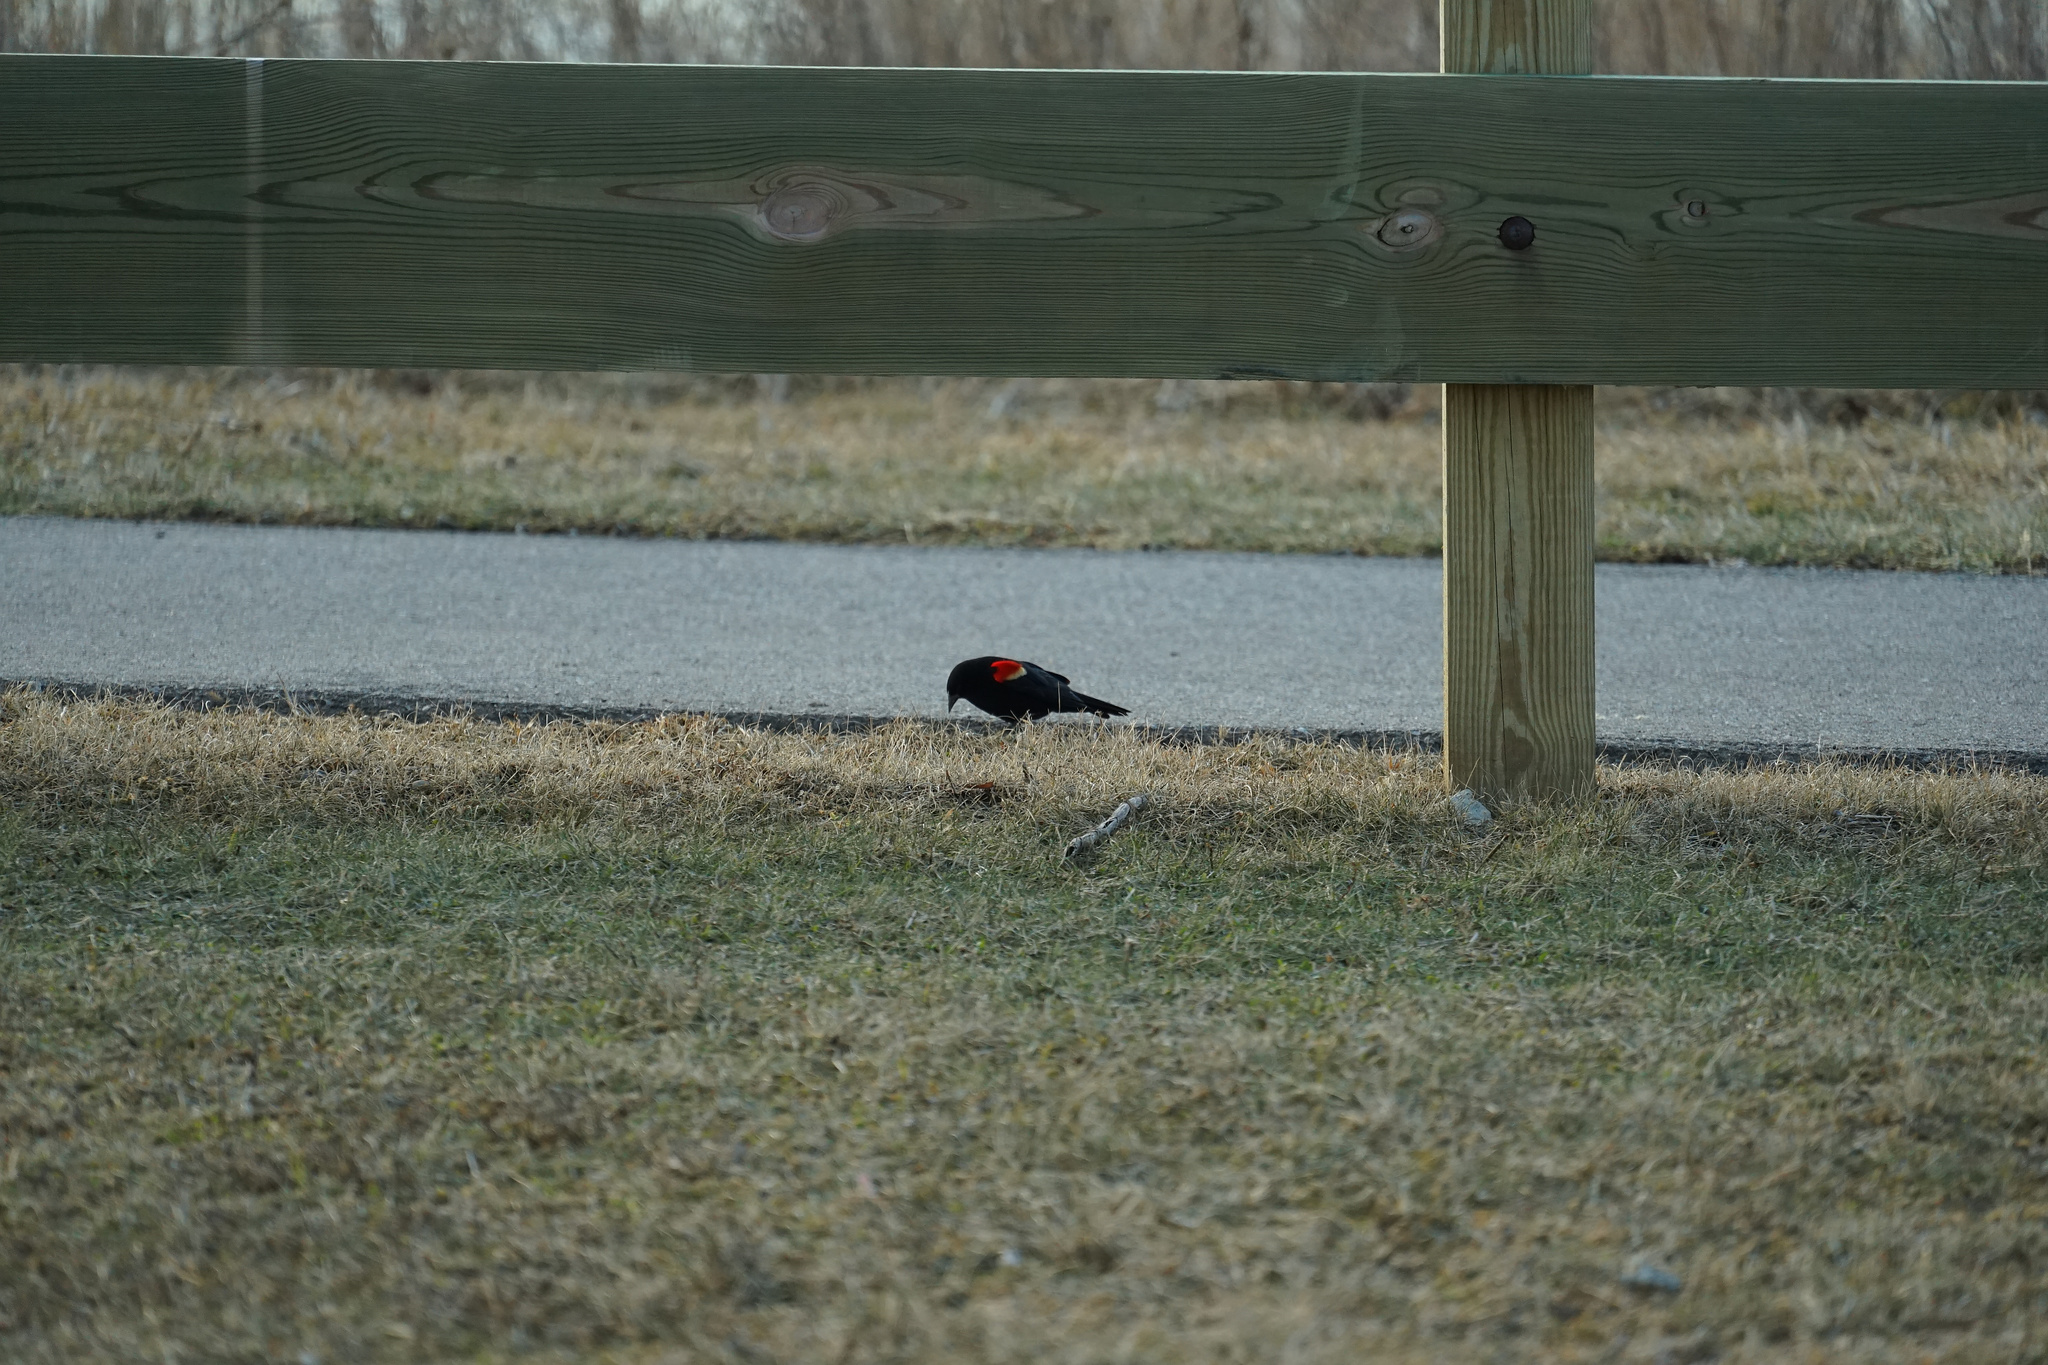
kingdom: Animalia
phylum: Chordata
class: Aves
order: Passeriformes
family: Icteridae
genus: Agelaius
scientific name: Agelaius phoeniceus
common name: Red-winged blackbird
